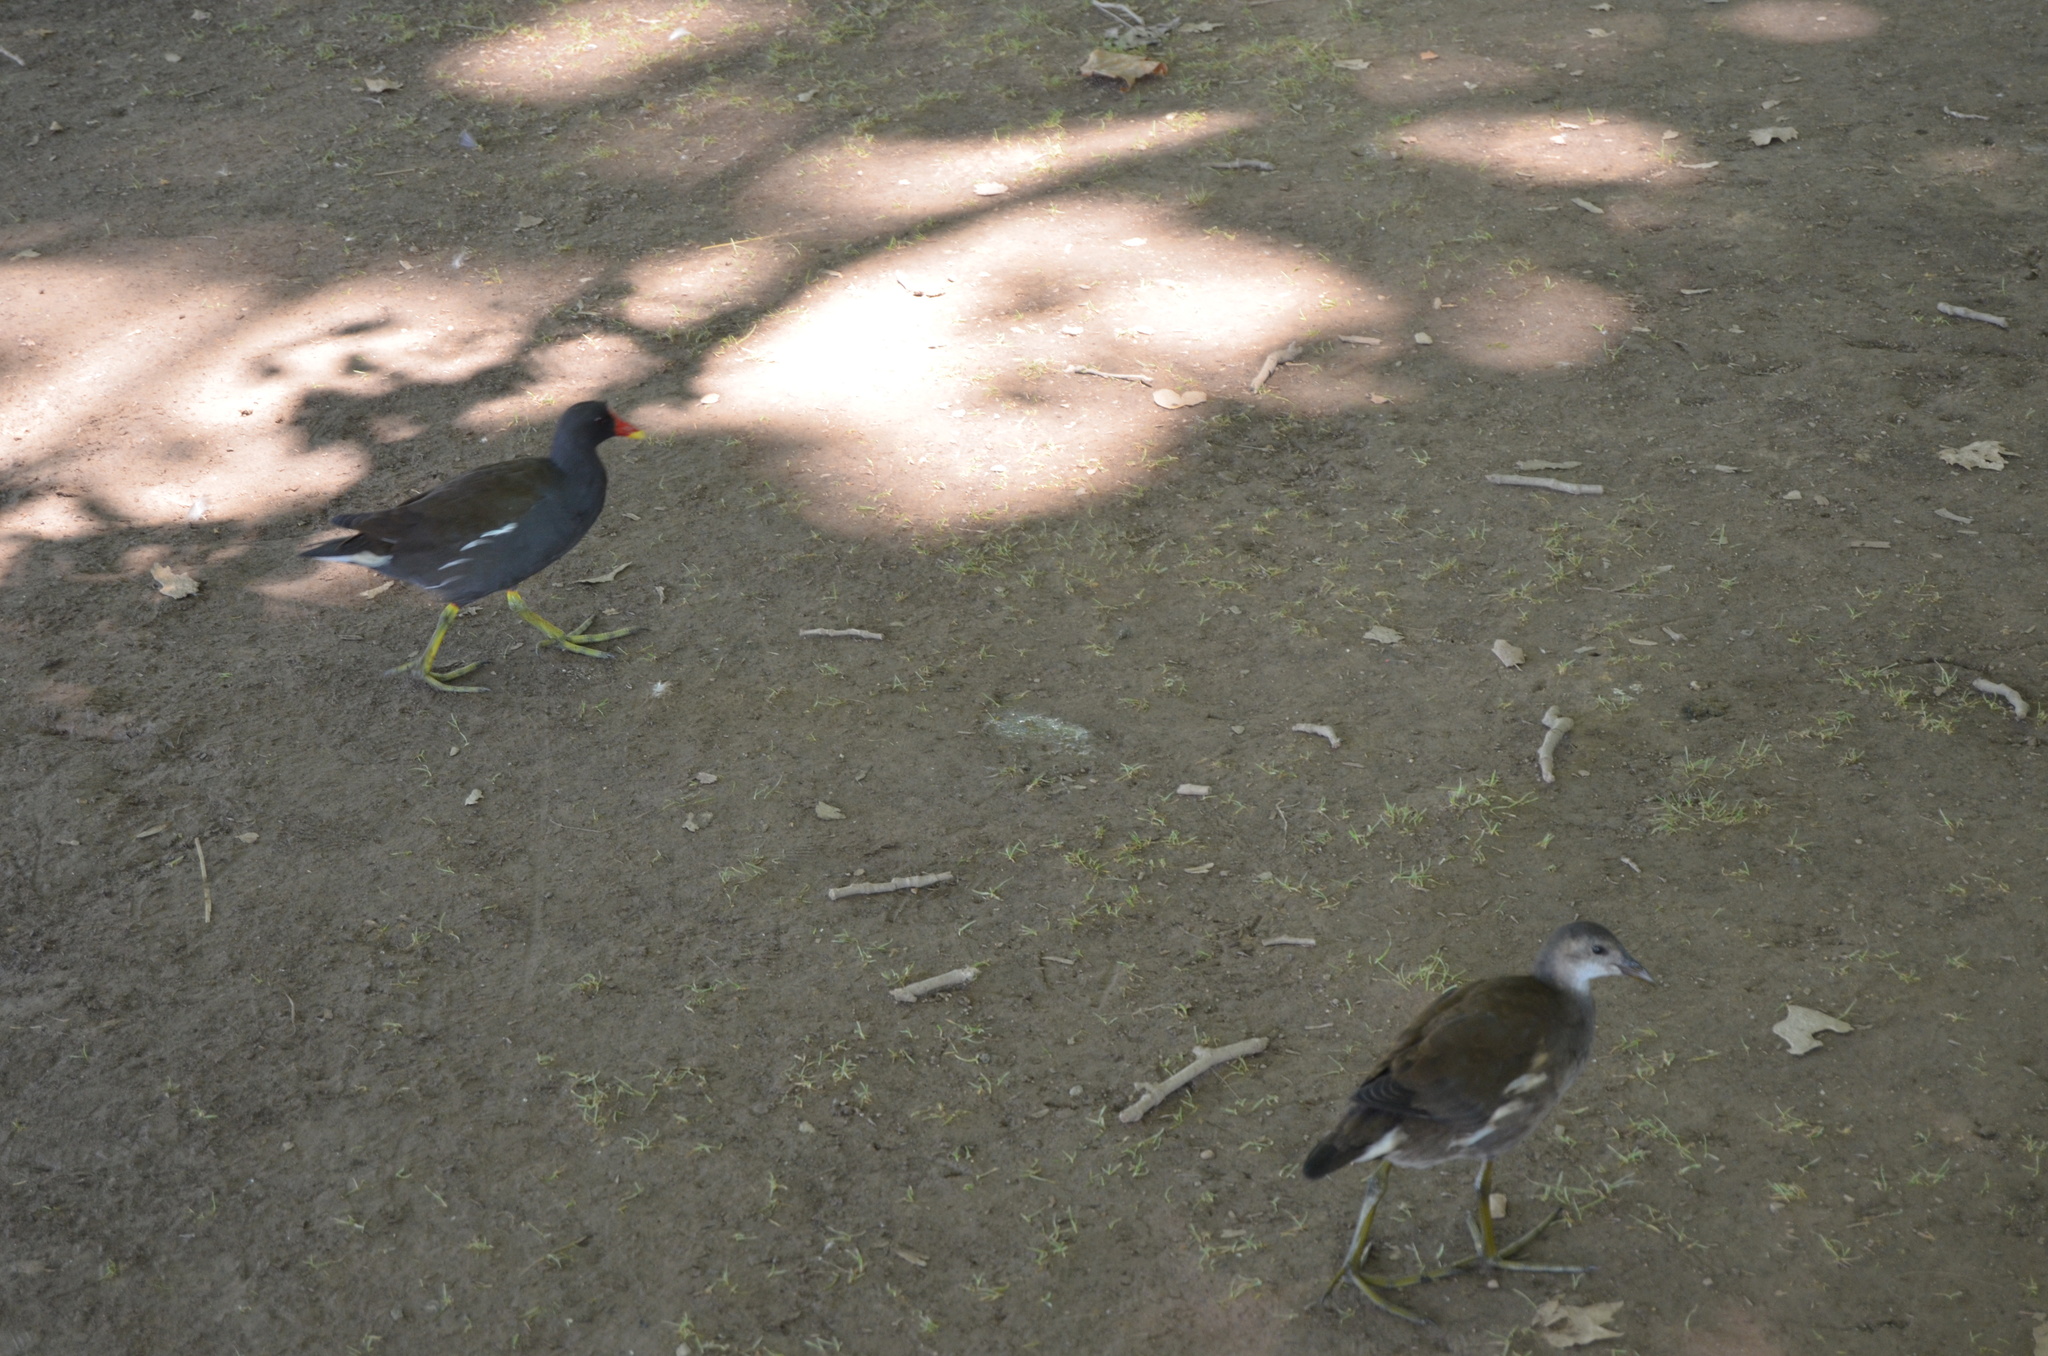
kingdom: Animalia
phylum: Chordata
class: Aves
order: Gruiformes
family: Rallidae
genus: Gallinula
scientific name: Gallinula chloropus
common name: Common moorhen
